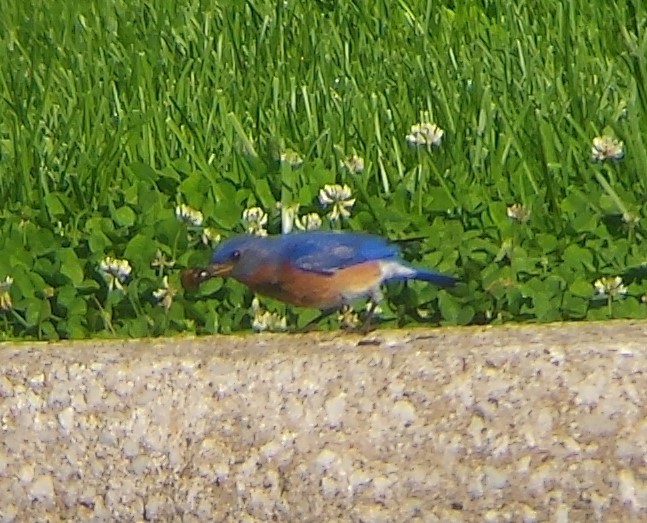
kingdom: Animalia
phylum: Chordata
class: Aves
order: Passeriformes
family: Turdidae
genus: Sialia
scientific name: Sialia sialis
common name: Eastern bluebird
